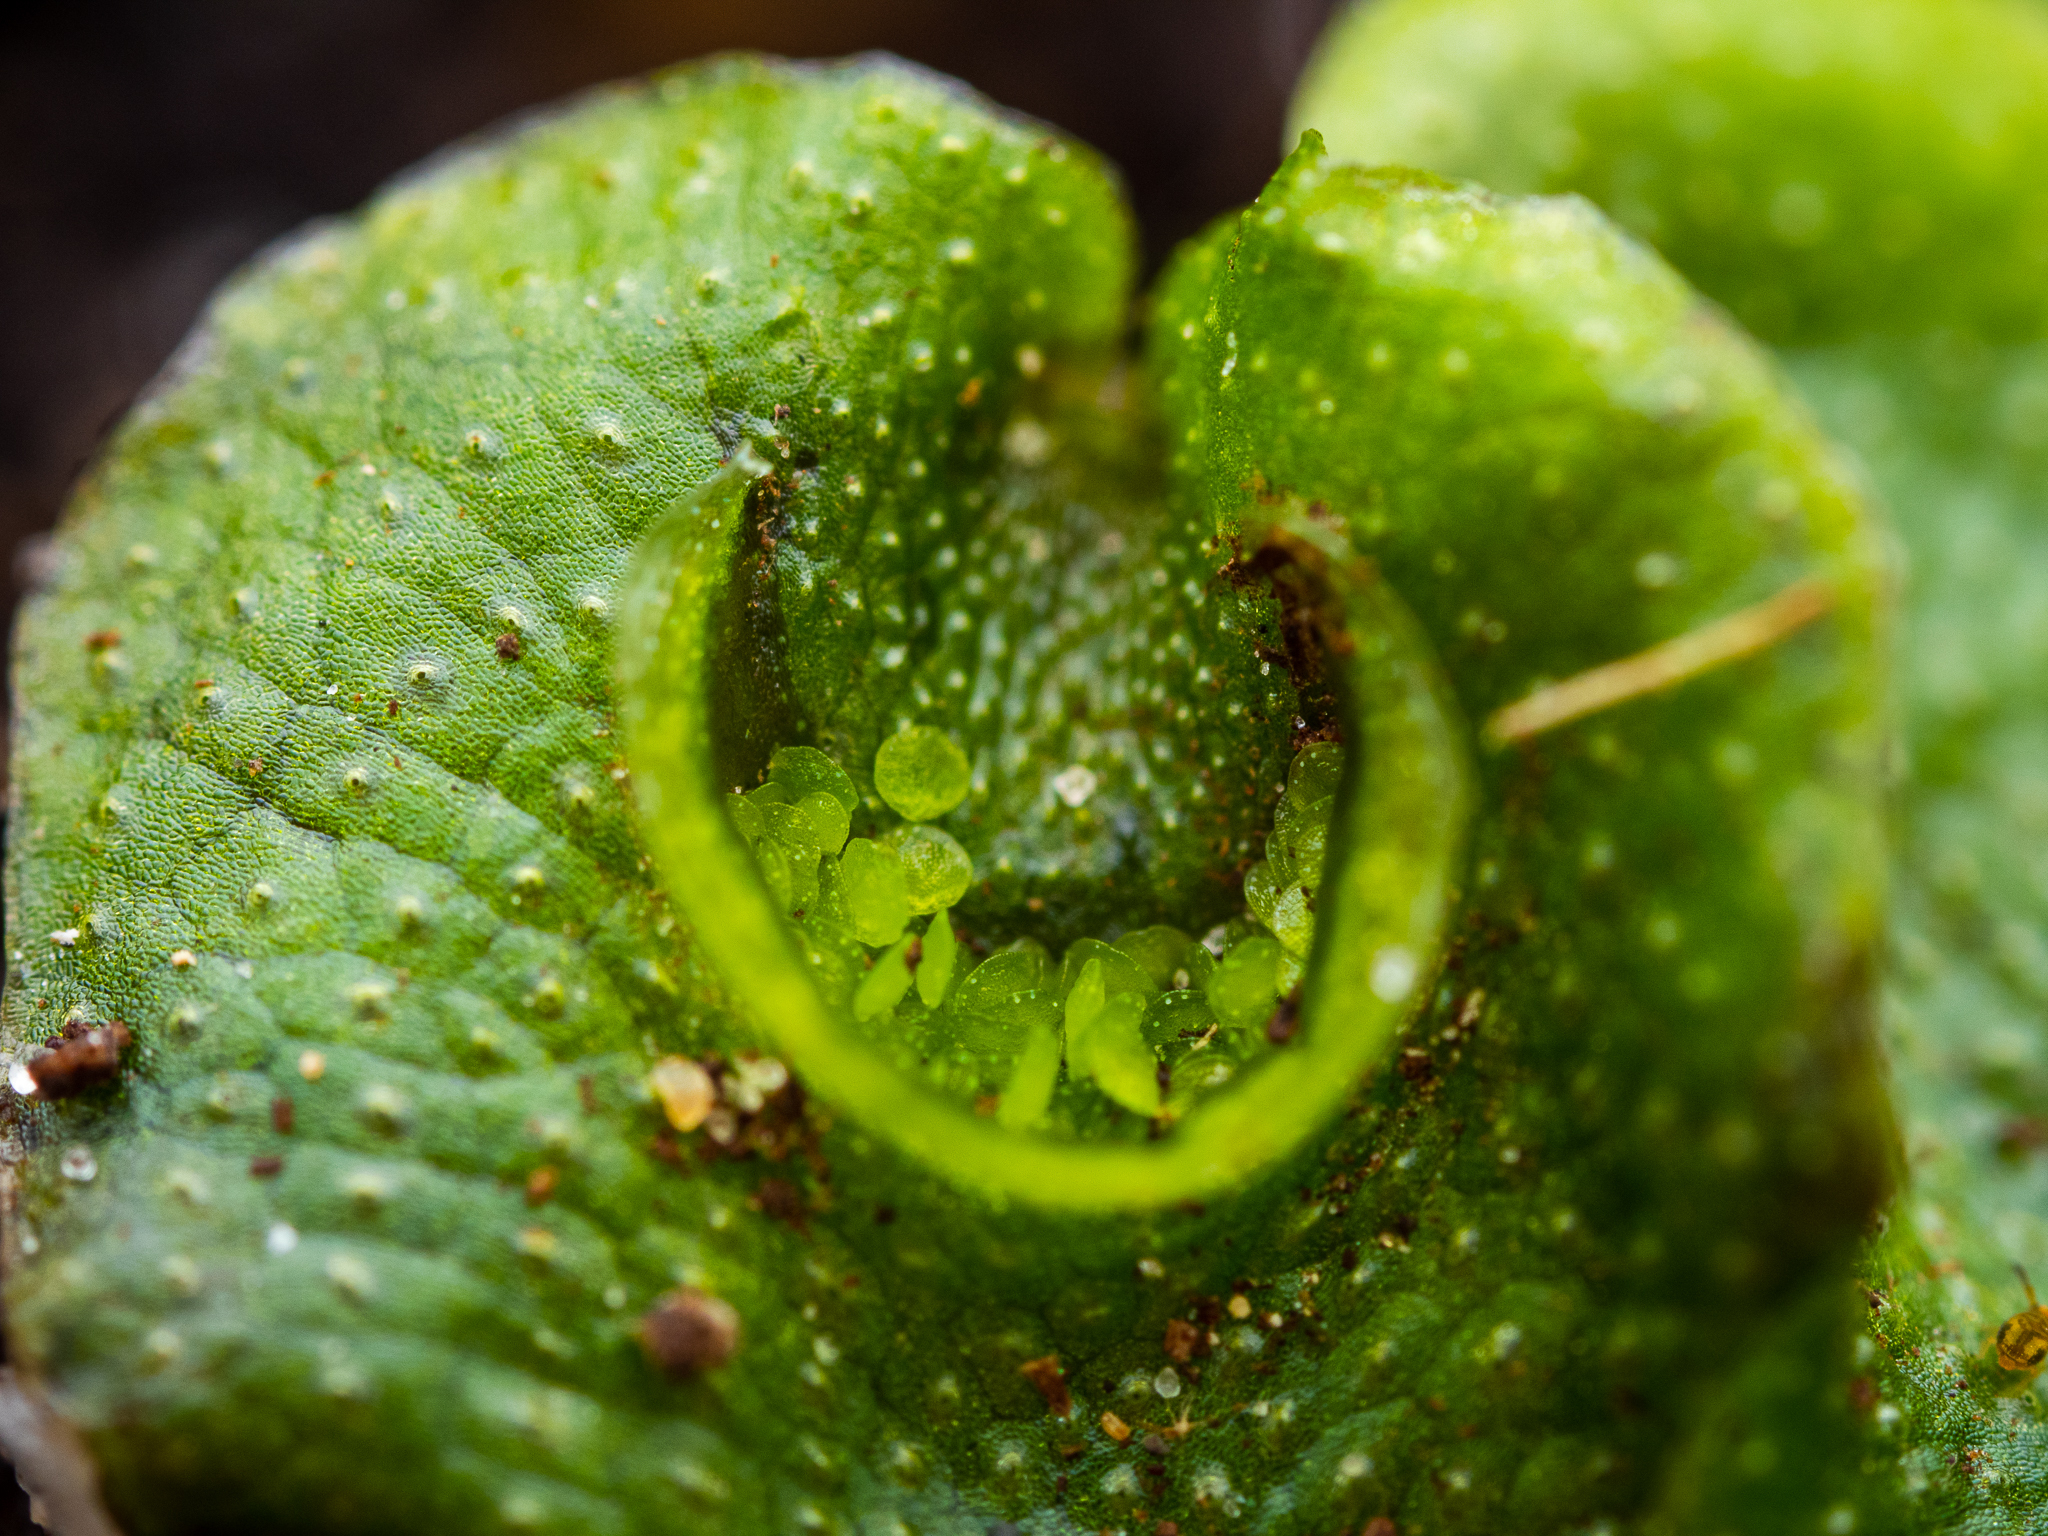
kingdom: Plantae
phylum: Marchantiophyta
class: Marchantiopsida
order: Lunulariales
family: Lunulariaceae
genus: Lunularia
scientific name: Lunularia cruciata
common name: Crescent-cup liverwort
